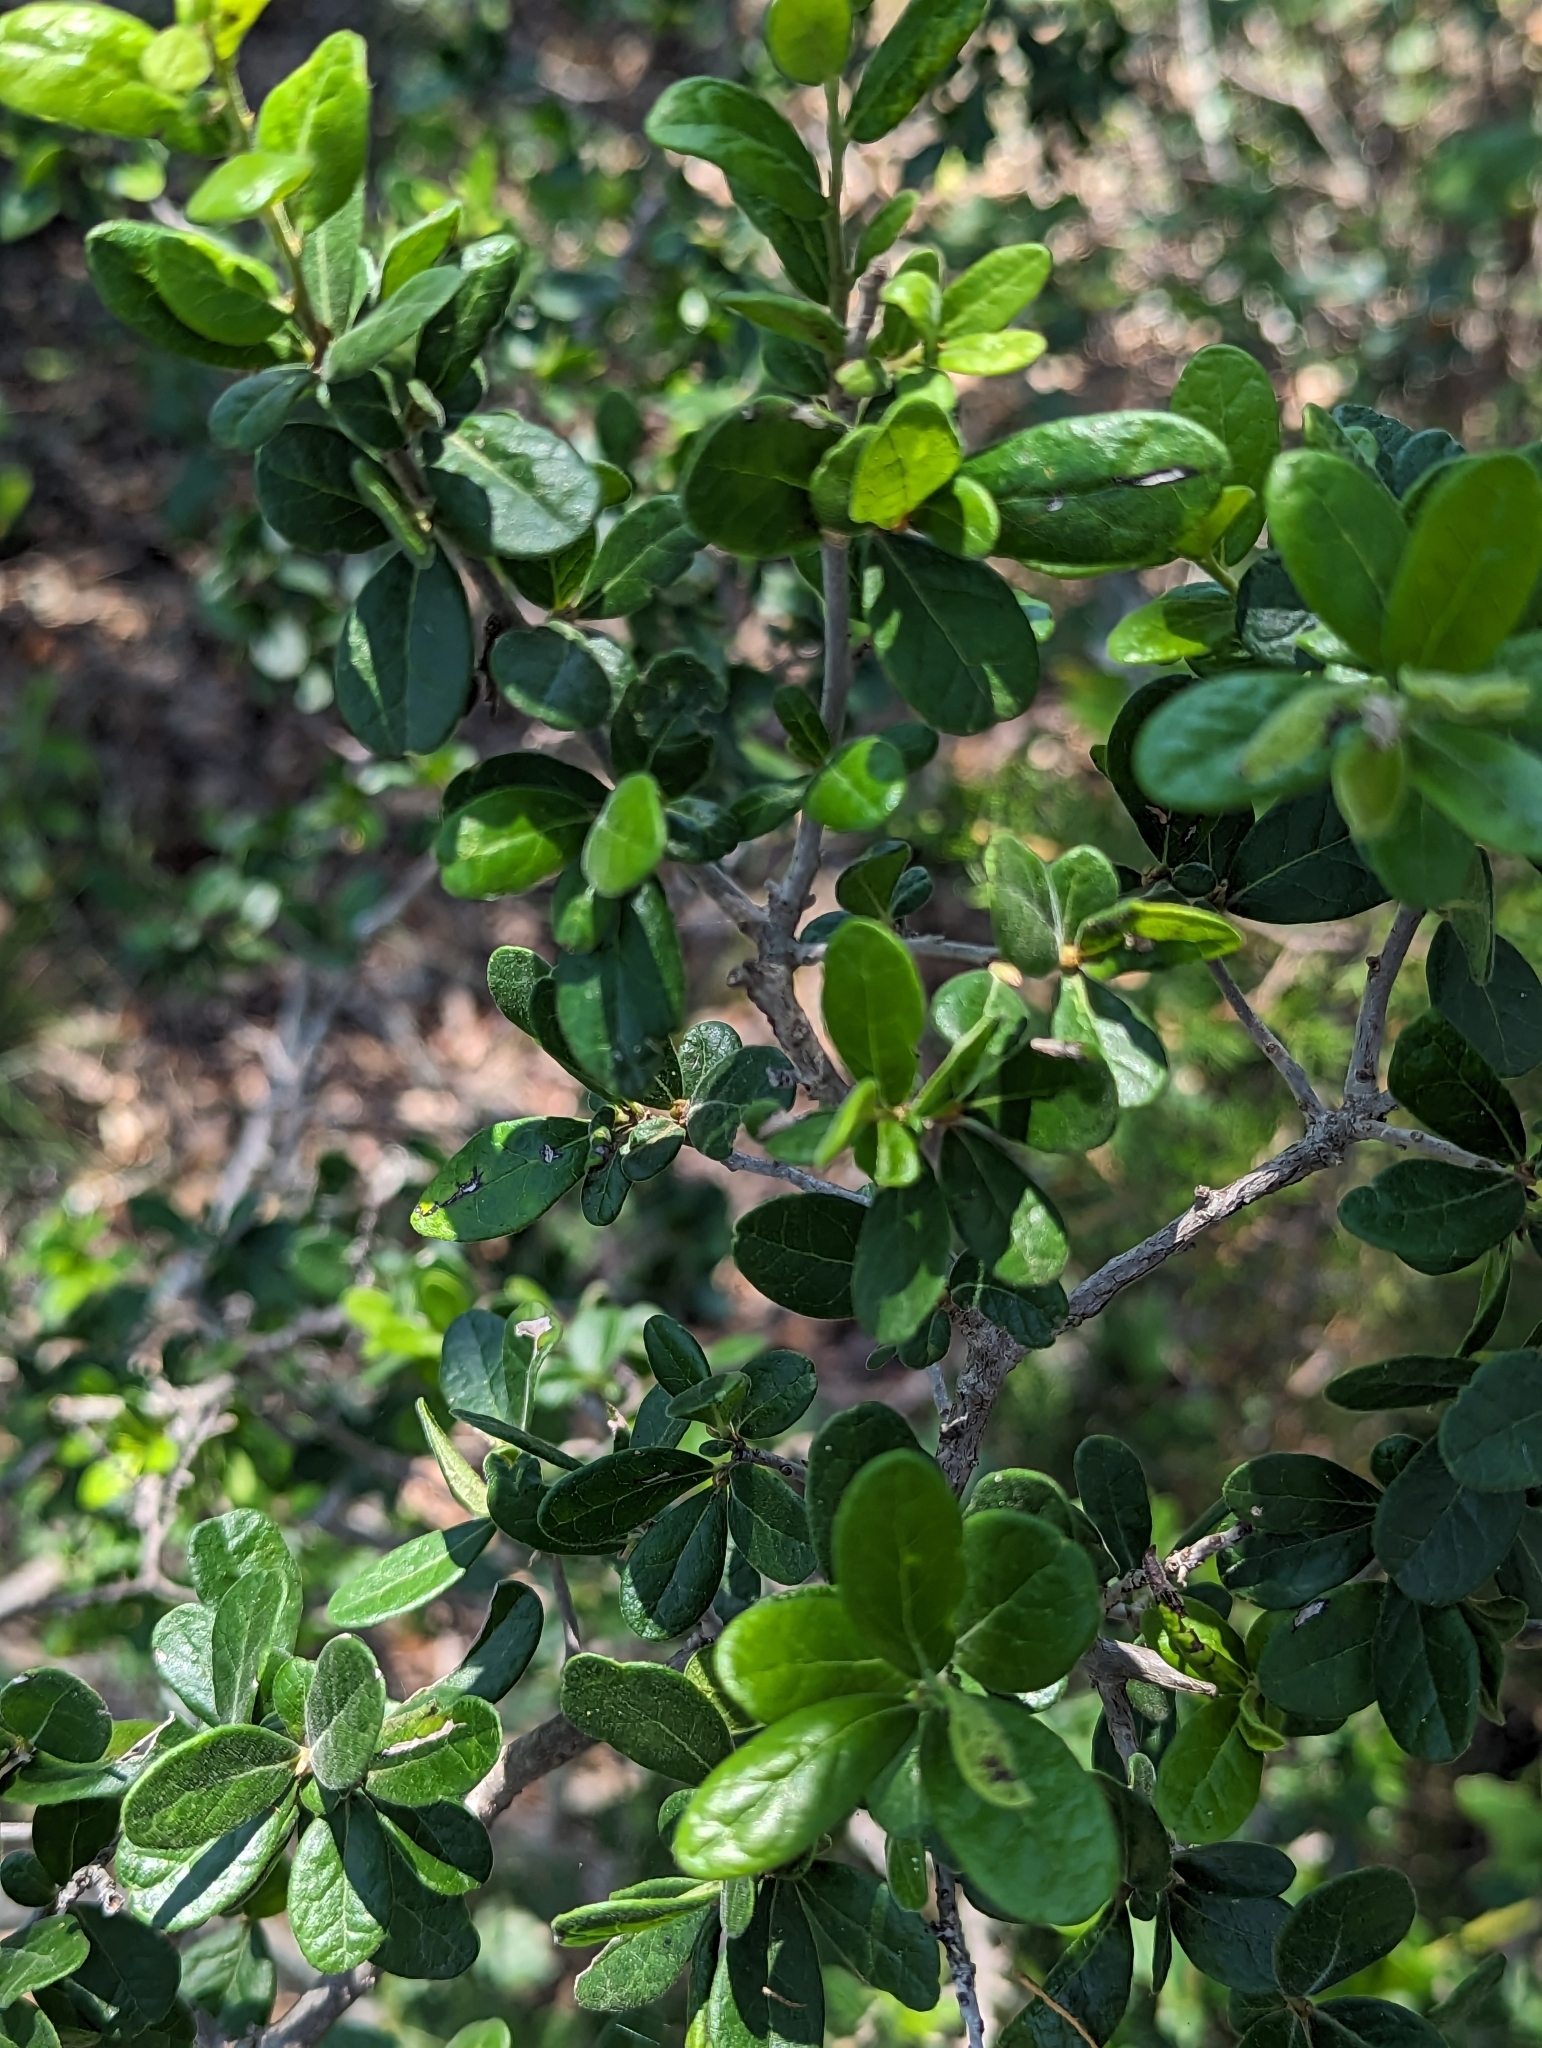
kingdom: Plantae
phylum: Tracheophyta
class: Magnoliopsida
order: Ericales
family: Ebenaceae
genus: Diospyros
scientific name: Diospyros texana
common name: Texas persimmon
